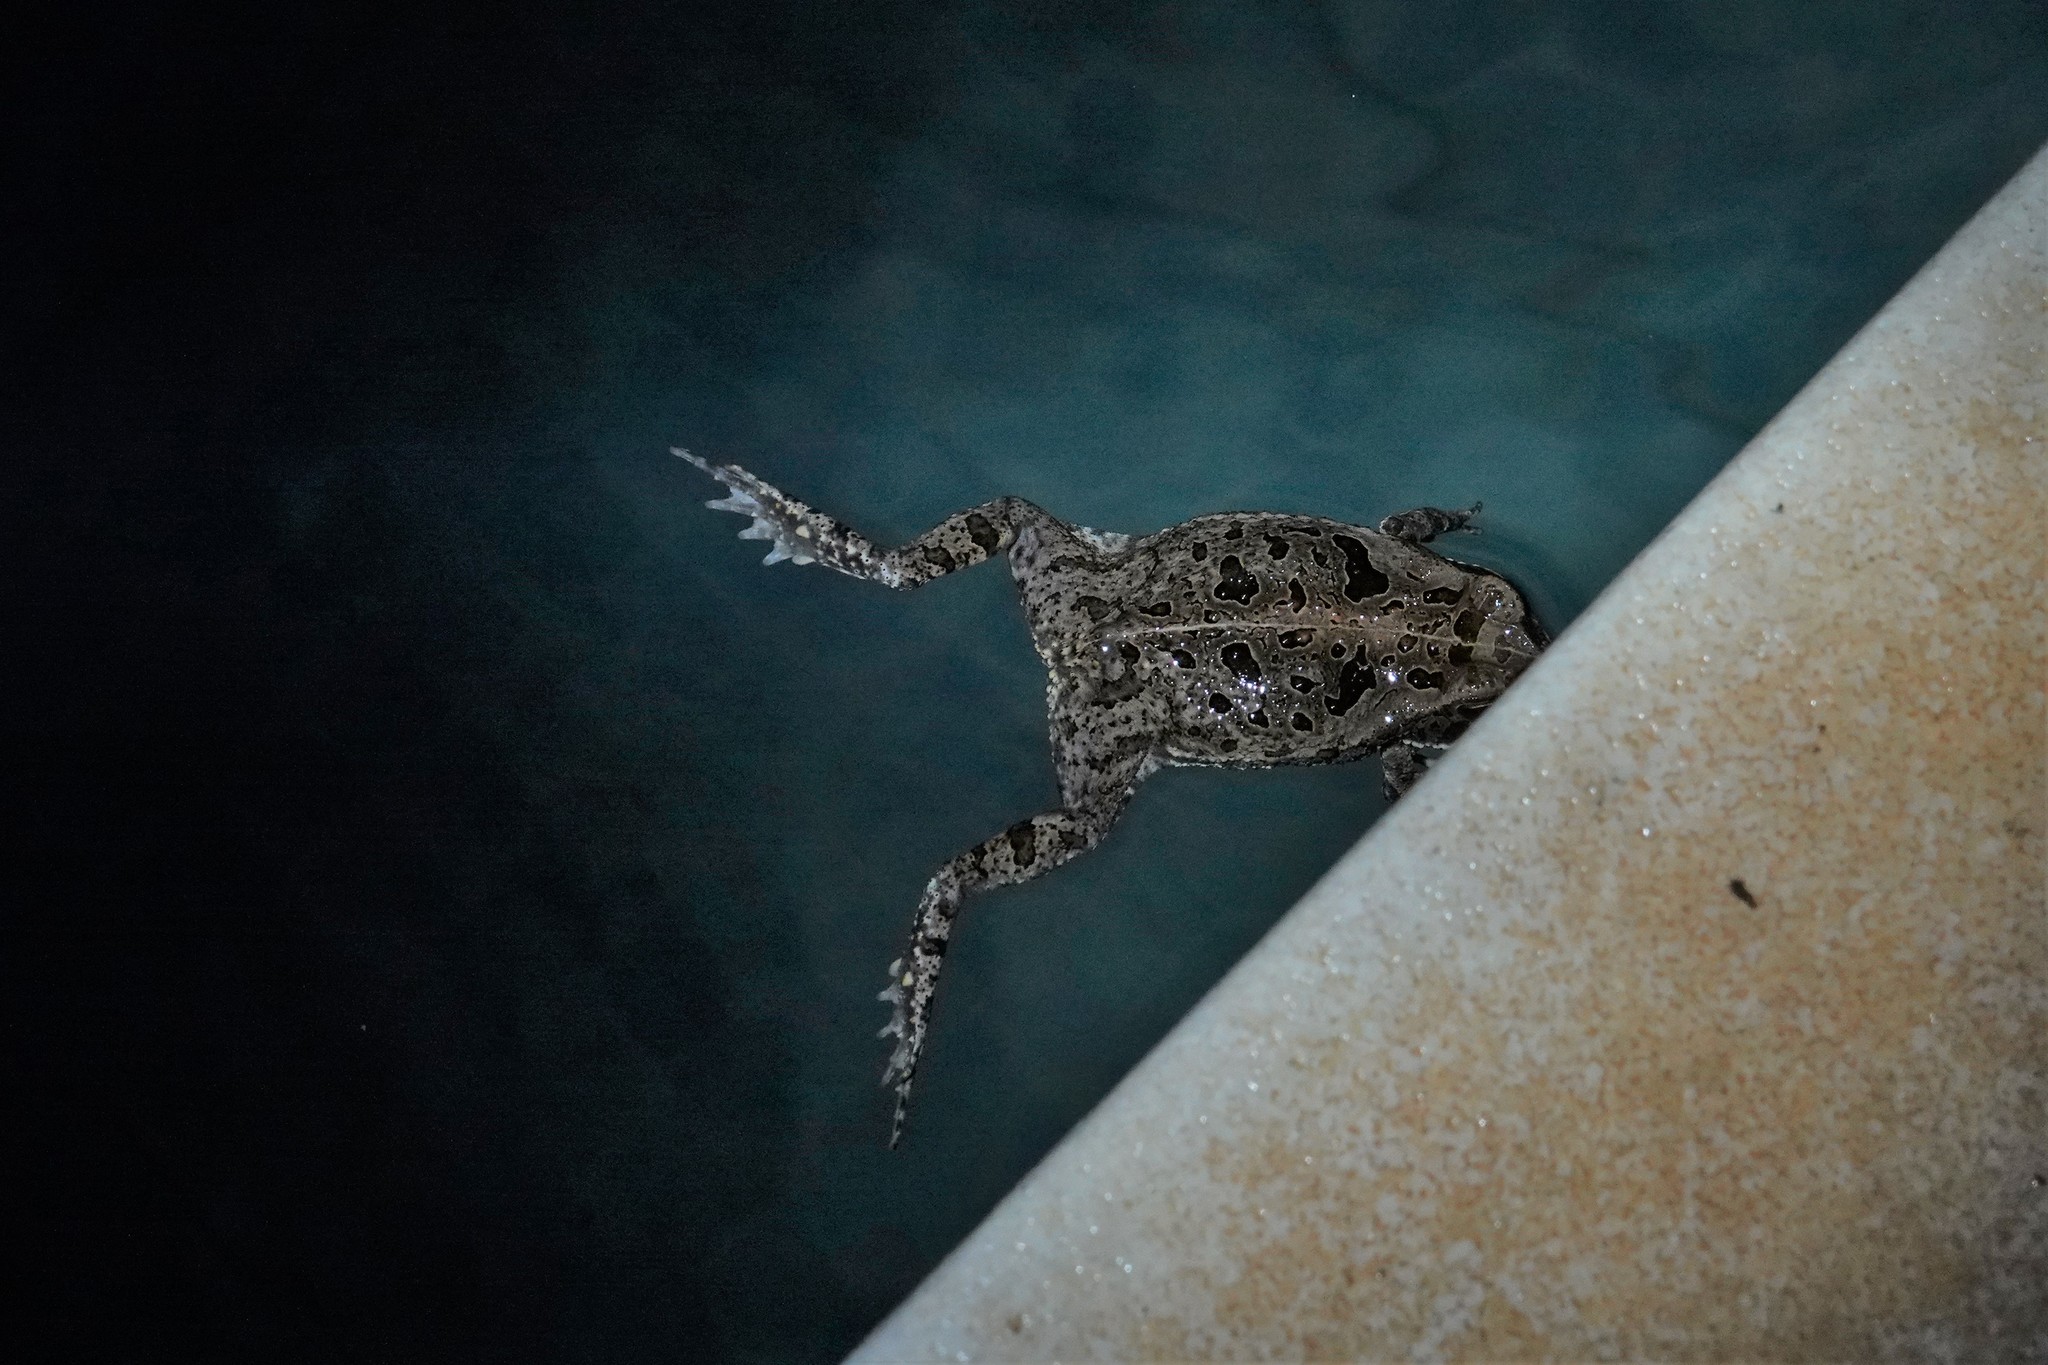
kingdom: Animalia
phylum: Chordata
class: Amphibia
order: Anura
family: Bufonidae
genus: Rhinella
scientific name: Rhinella diptycha
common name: Cope's toad
